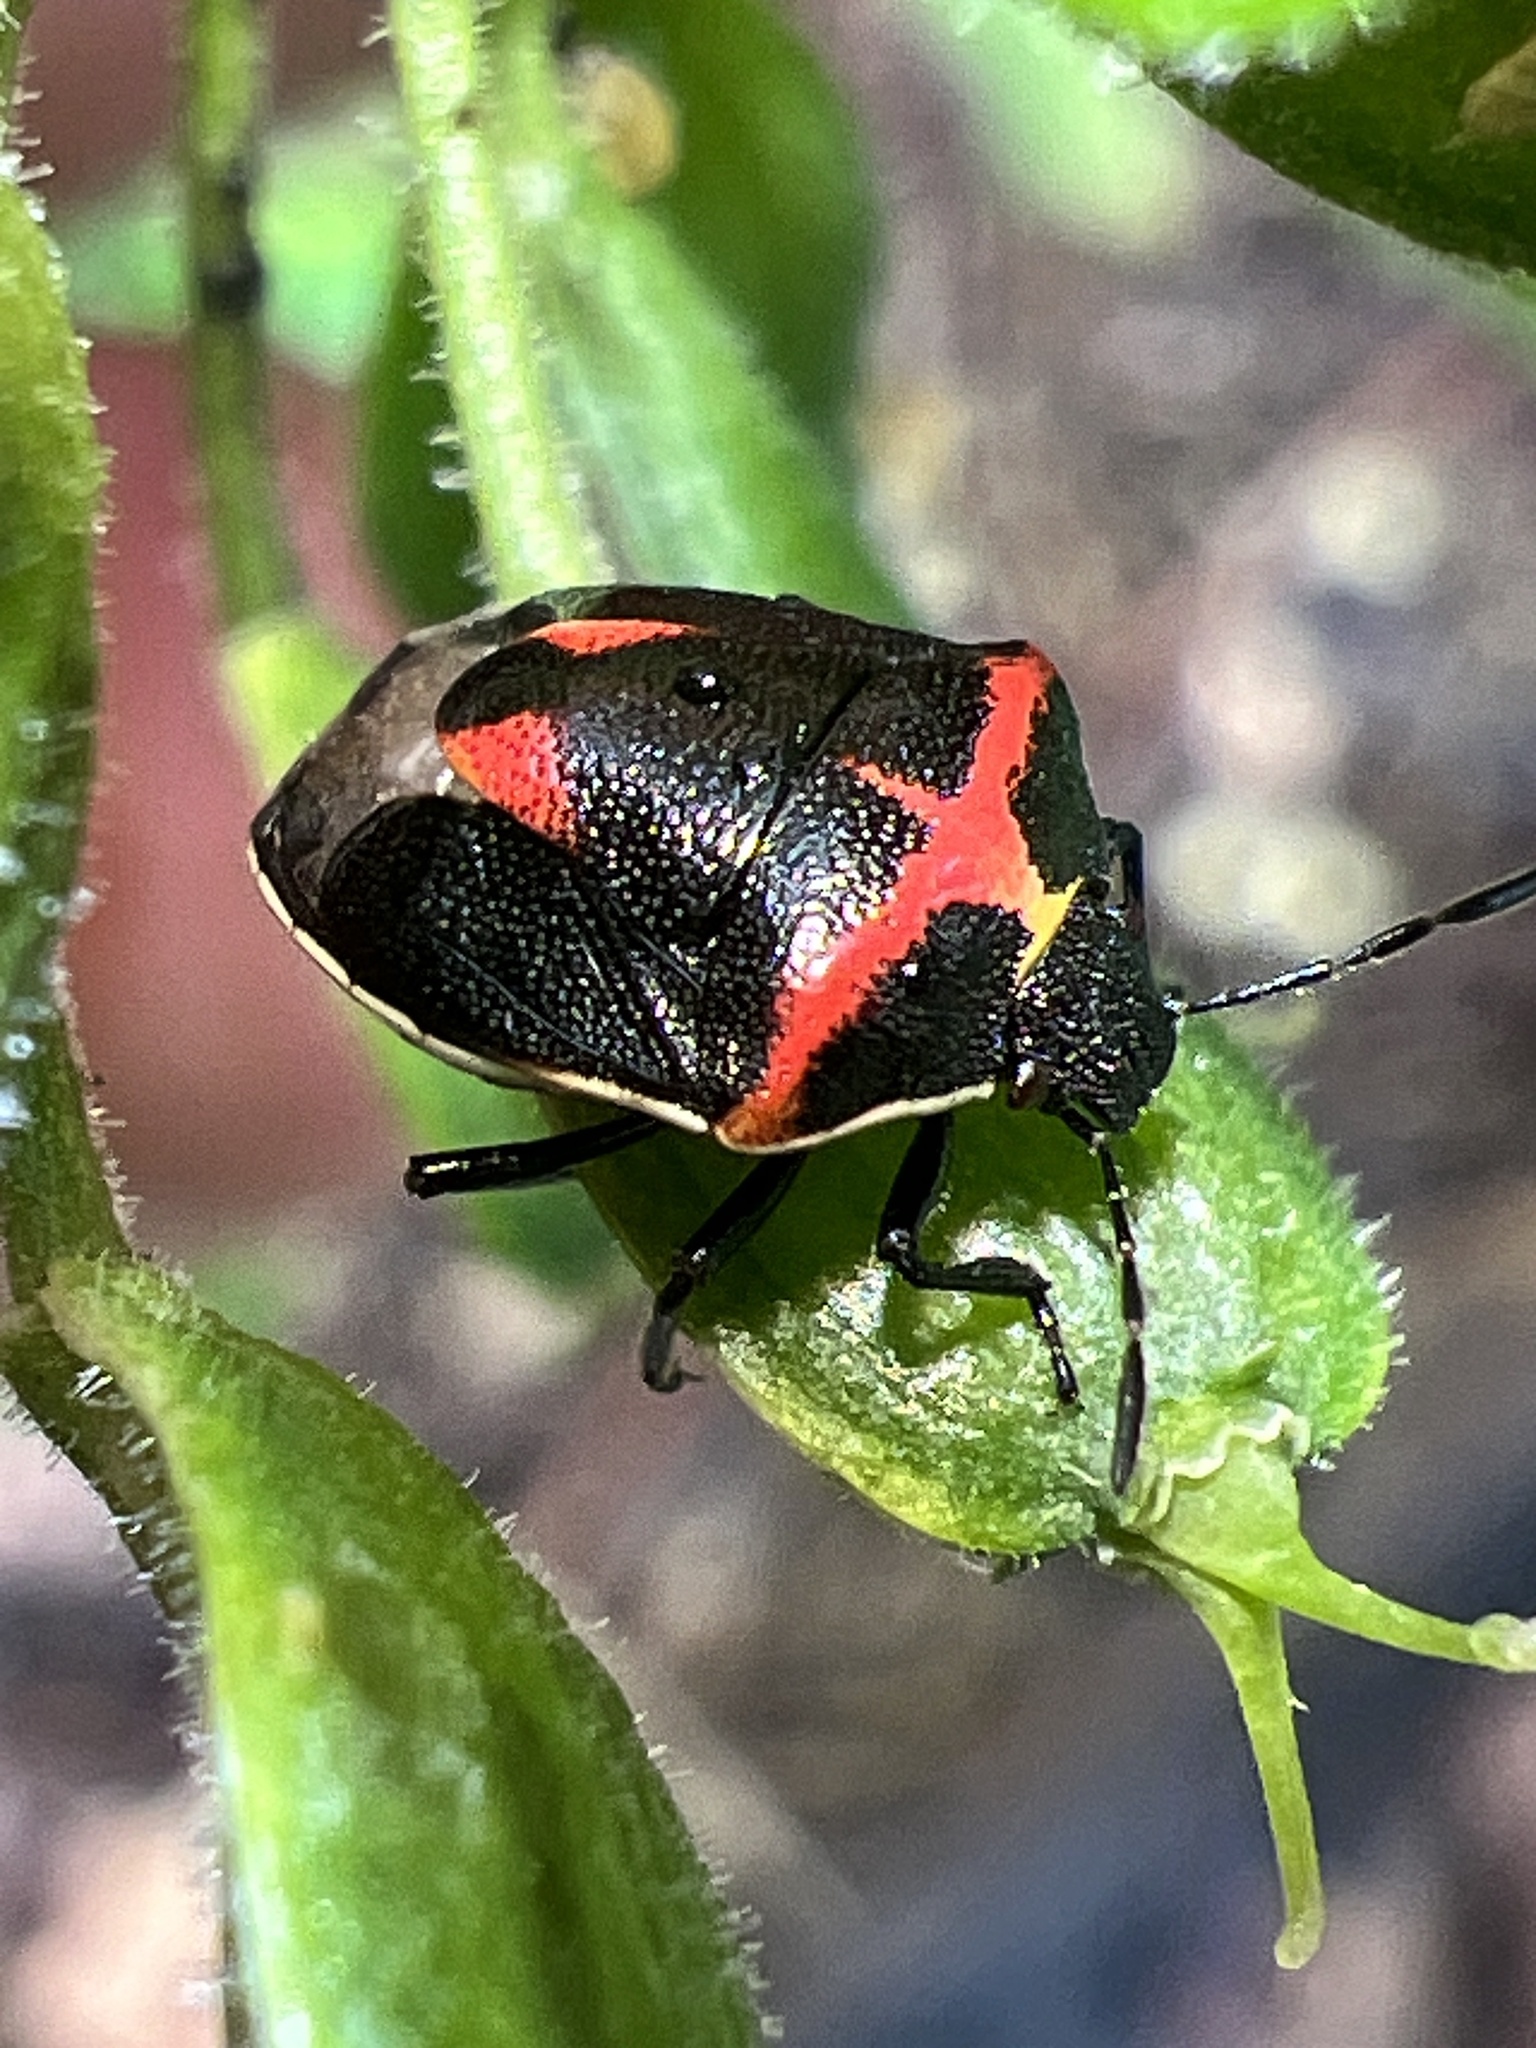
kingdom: Animalia
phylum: Arthropoda
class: Insecta
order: Hemiptera
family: Pentatomidae
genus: Cosmopepla
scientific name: Cosmopepla lintneriana
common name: Twice-stabbed stink bug
